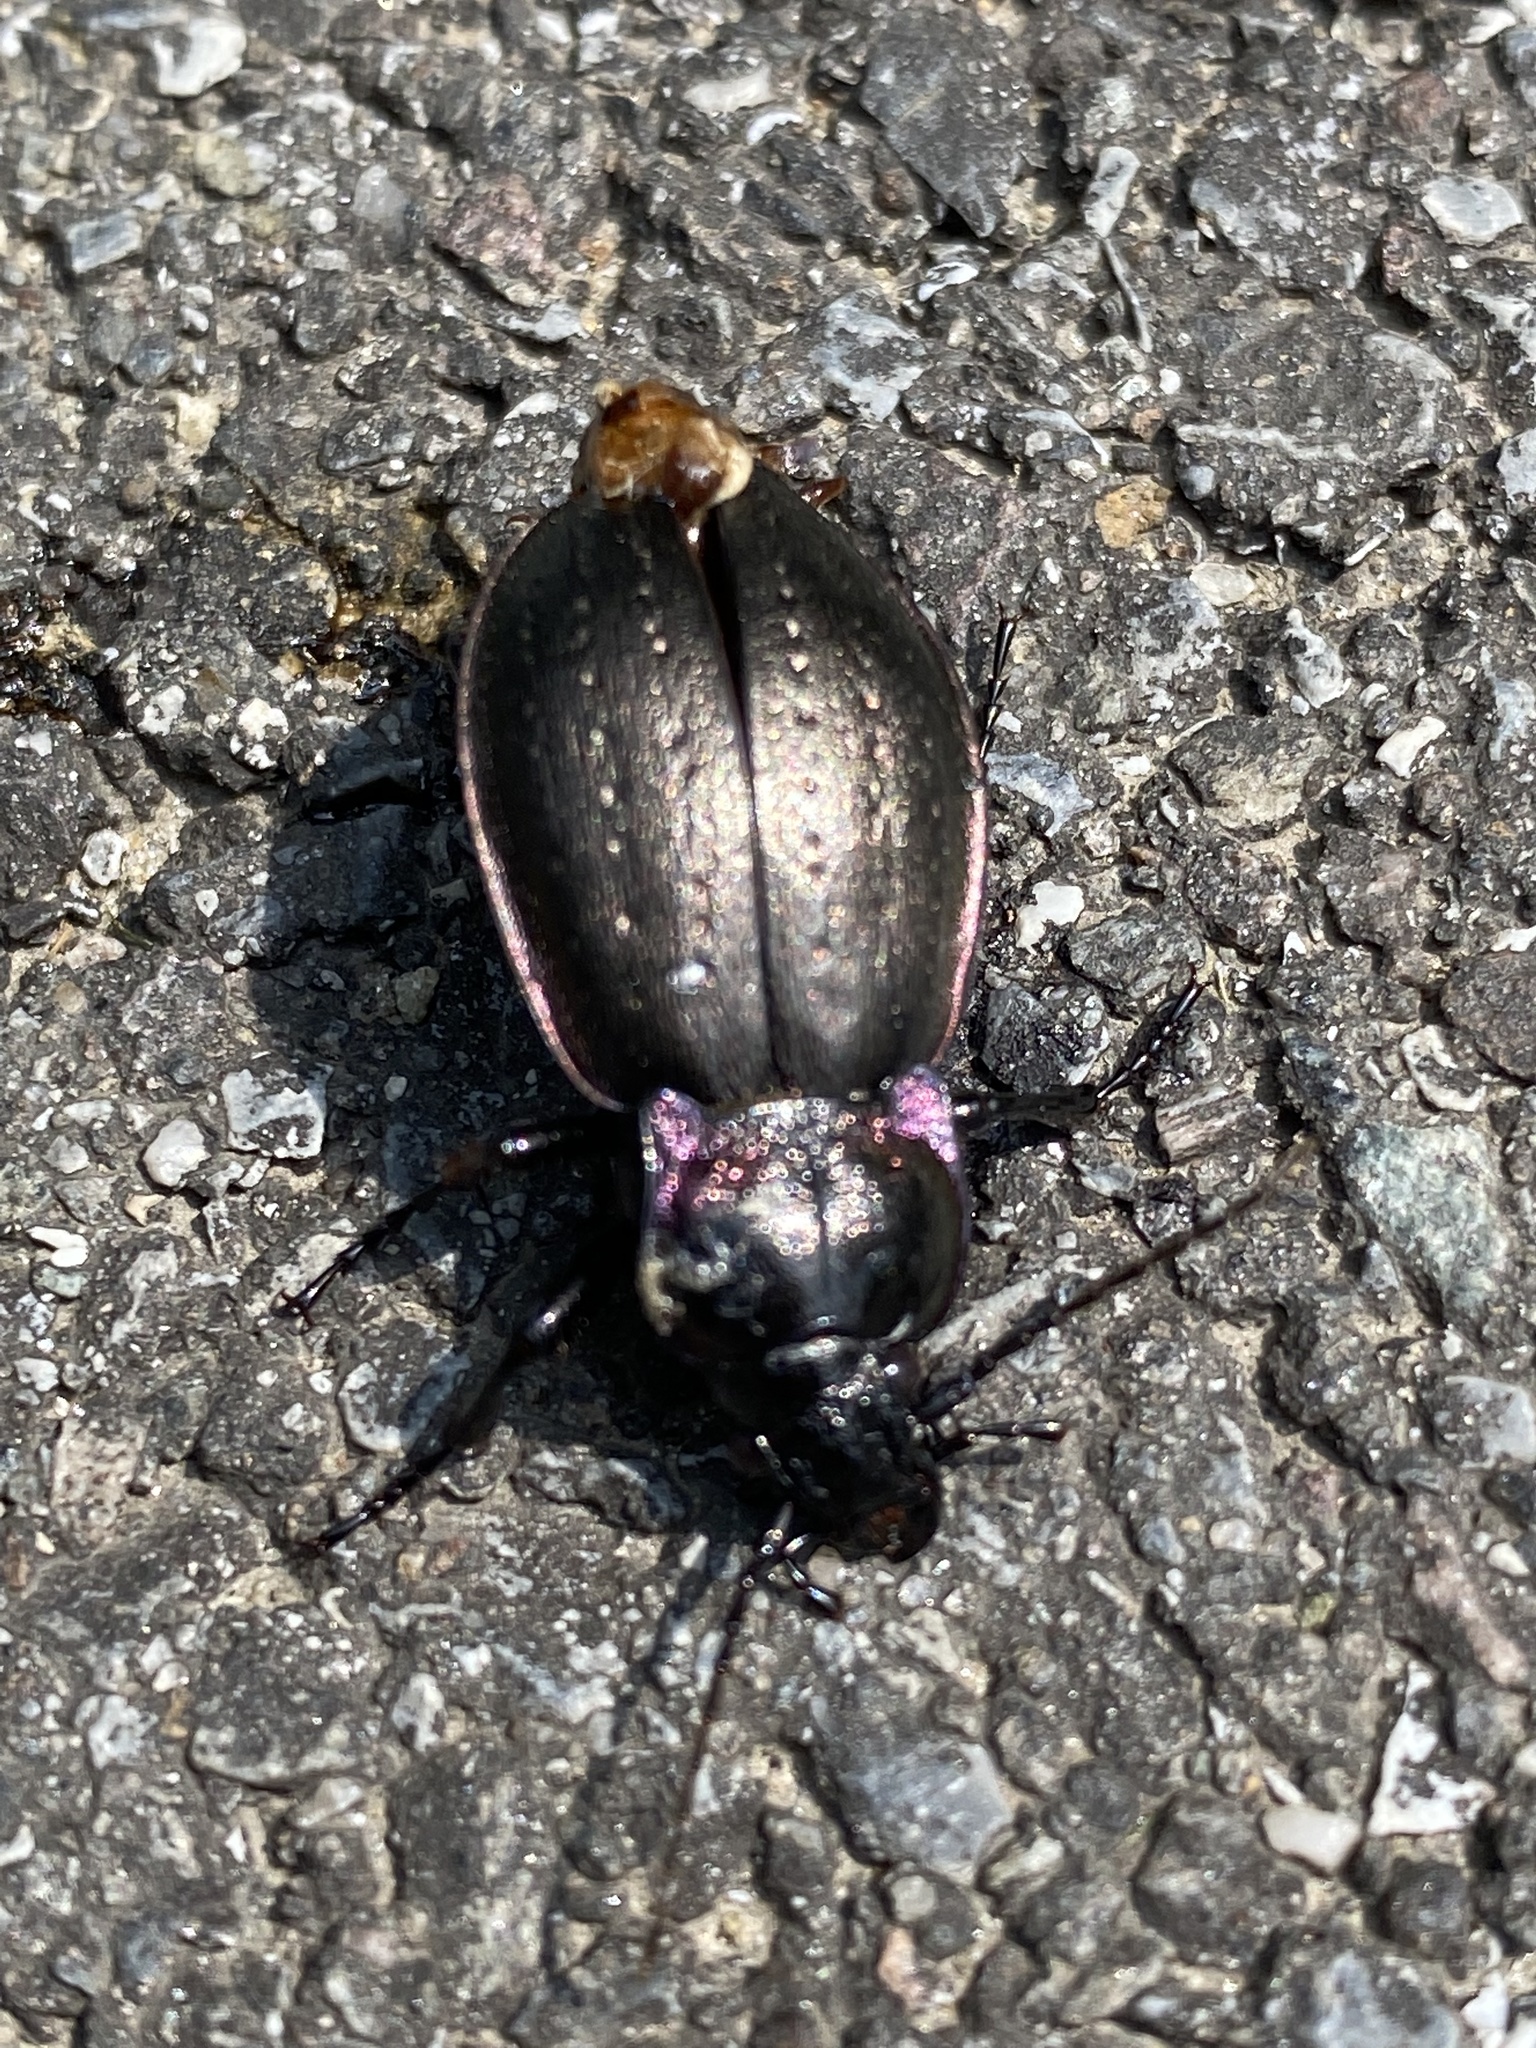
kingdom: Animalia
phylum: Arthropoda
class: Insecta
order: Coleoptera
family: Carabidae
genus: Carabus
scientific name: Carabus nemoralis
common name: European ground beetle
